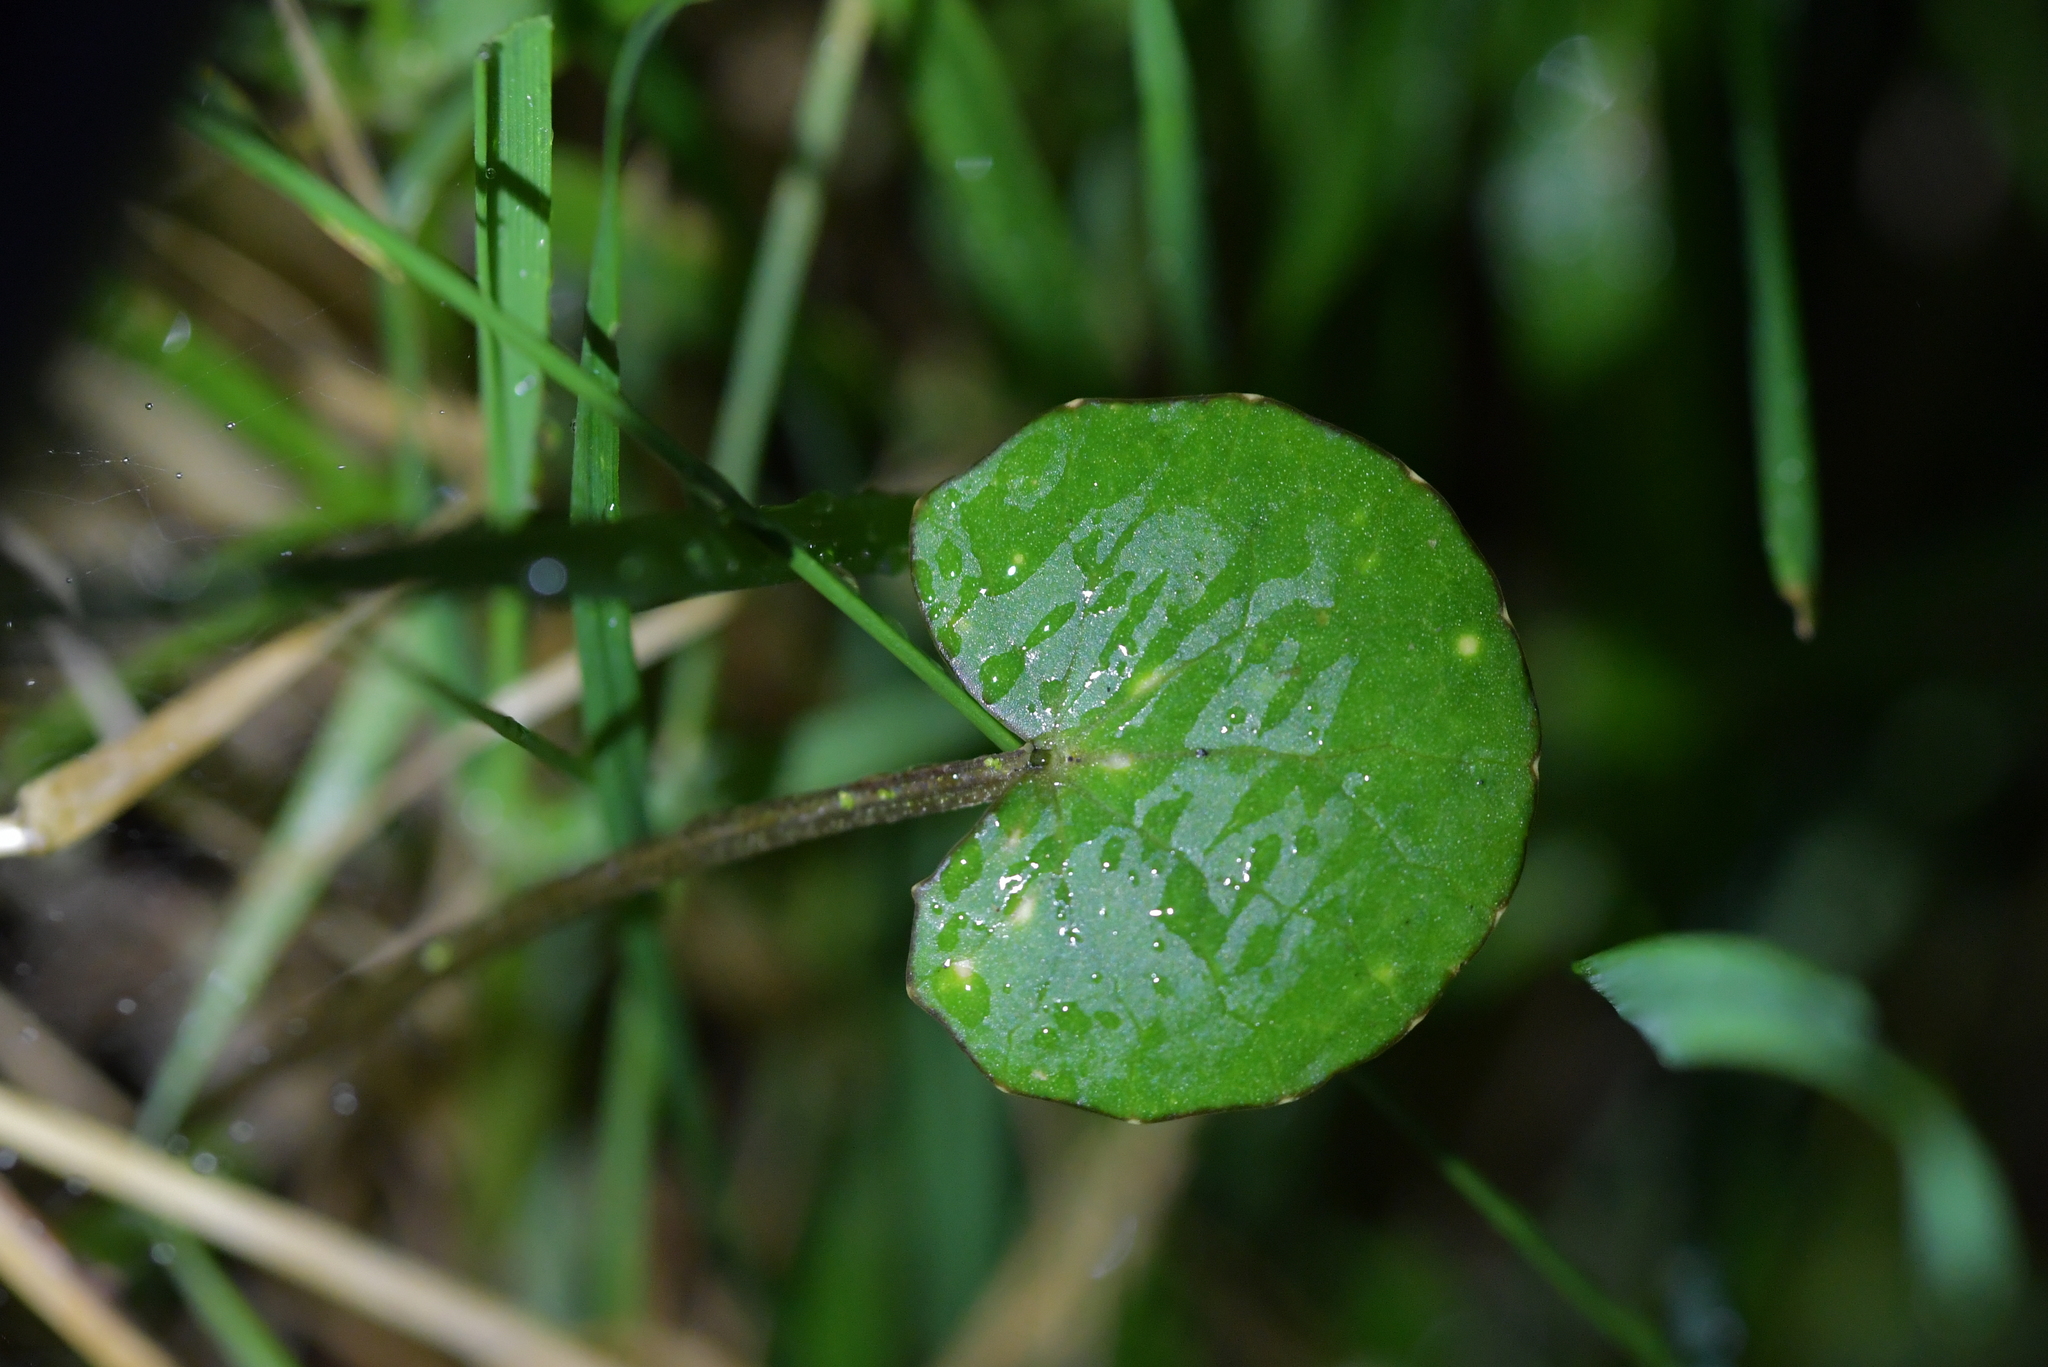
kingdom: Plantae
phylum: Tracheophyta
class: Magnoliopsida
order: Apiales
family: Apiaceae
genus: Centella
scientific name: Centella uniflora
